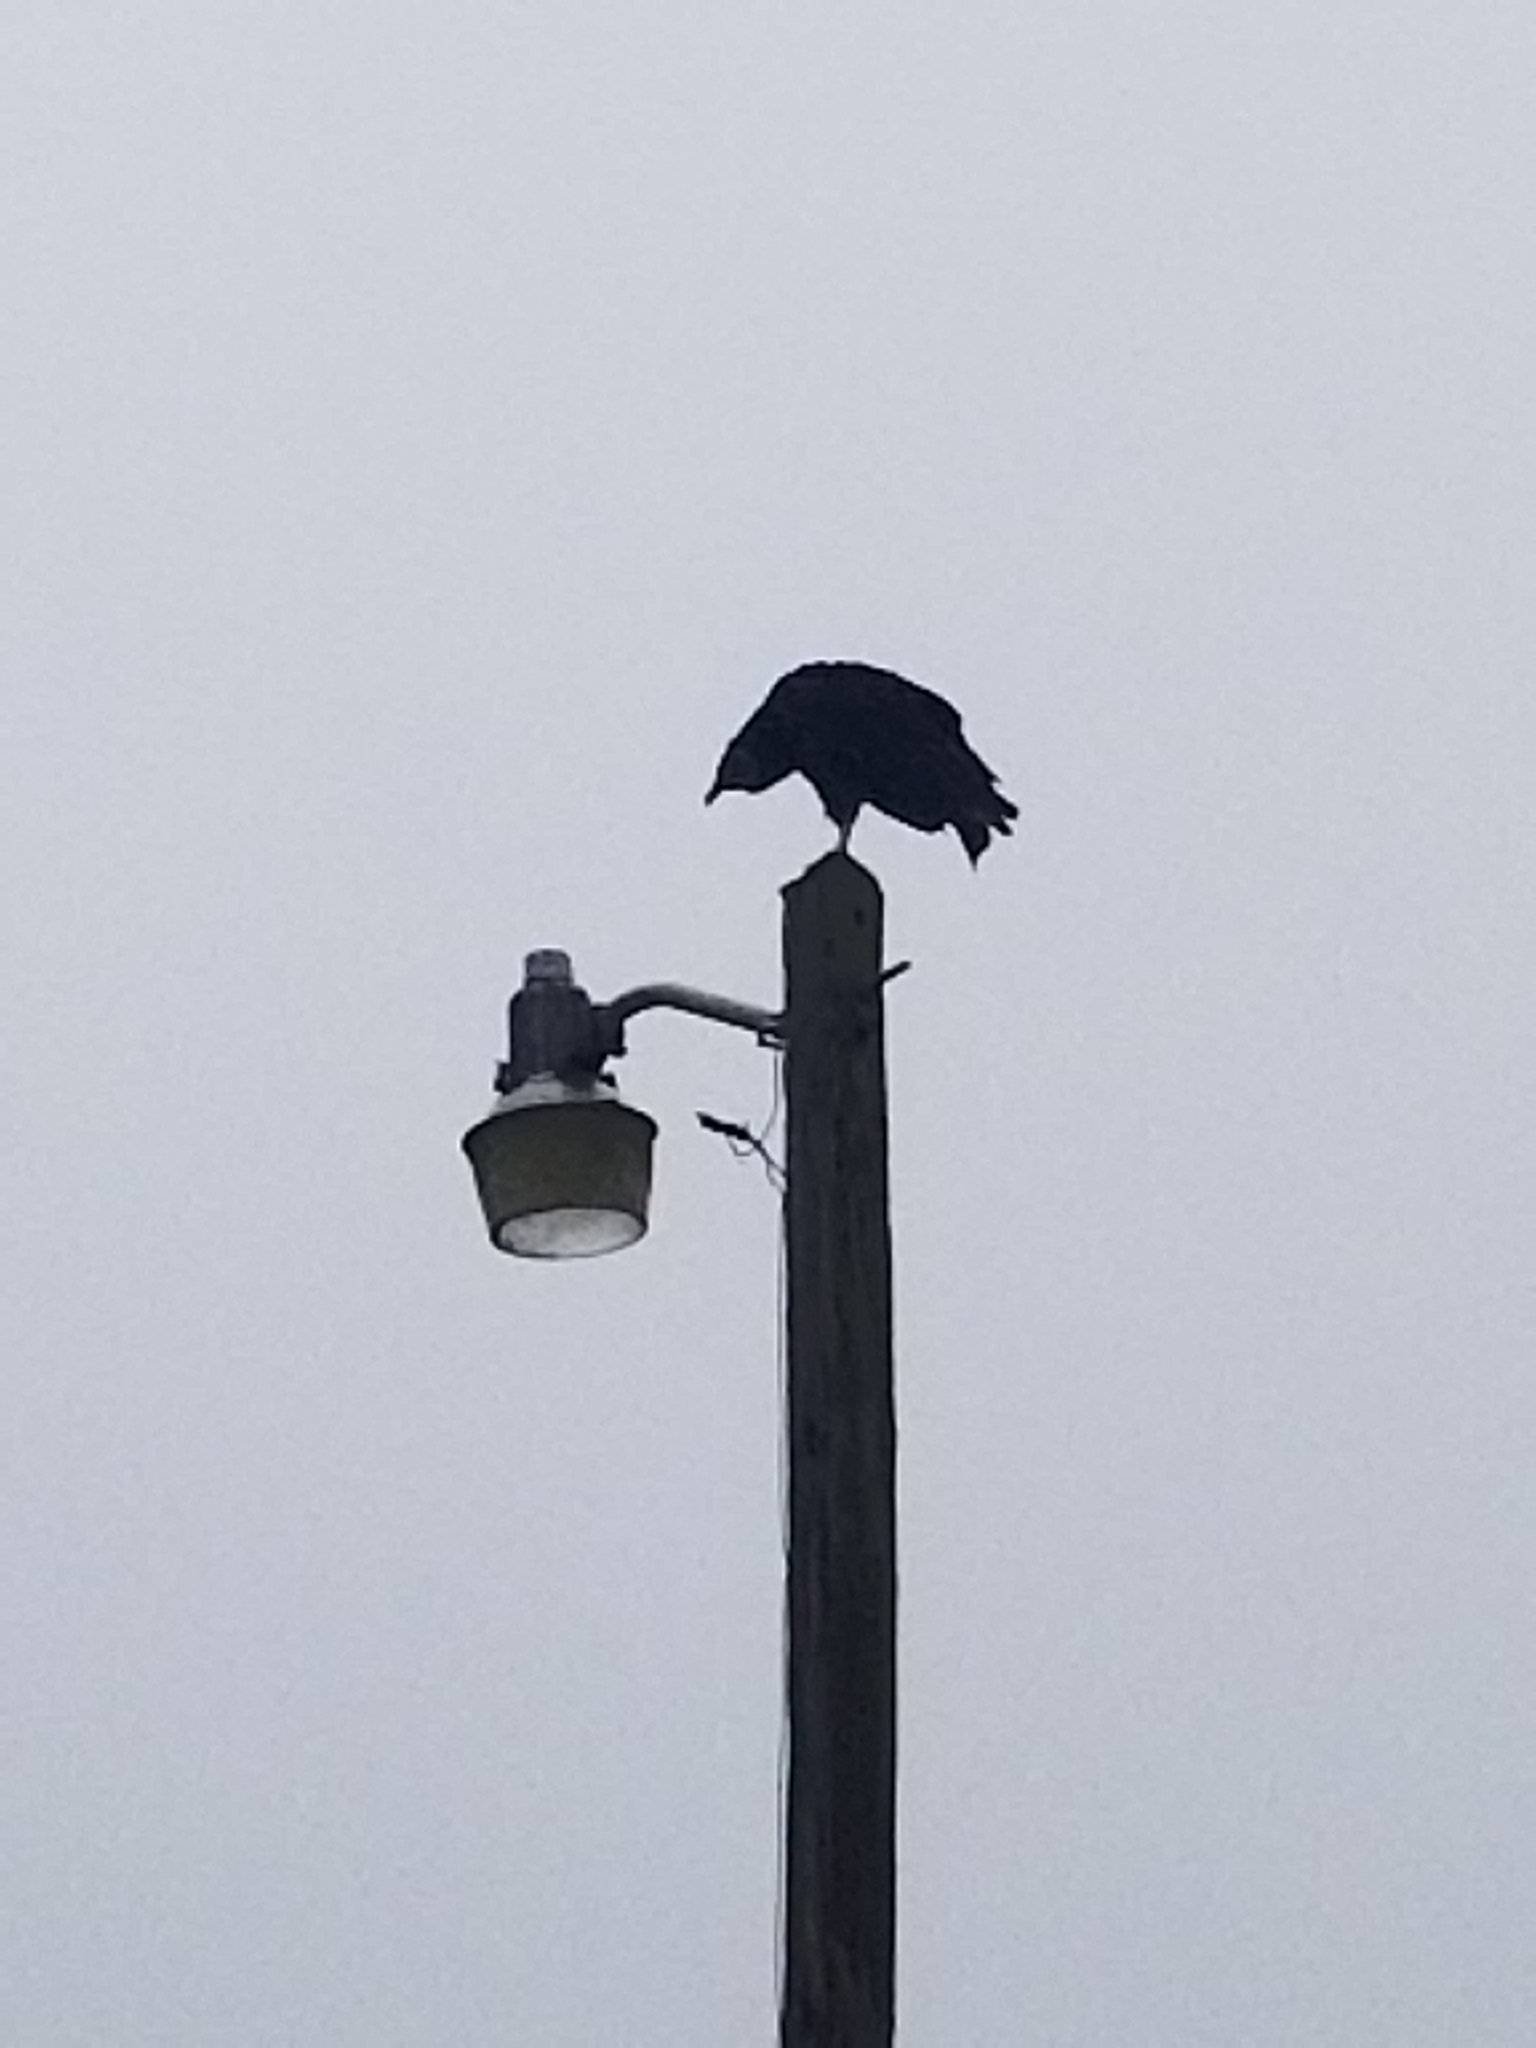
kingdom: Animalia
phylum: Chordata
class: Aves
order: Accipitriformes
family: Cathartidae
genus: Coragyps
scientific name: Coragyps atratus
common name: Black vulture
